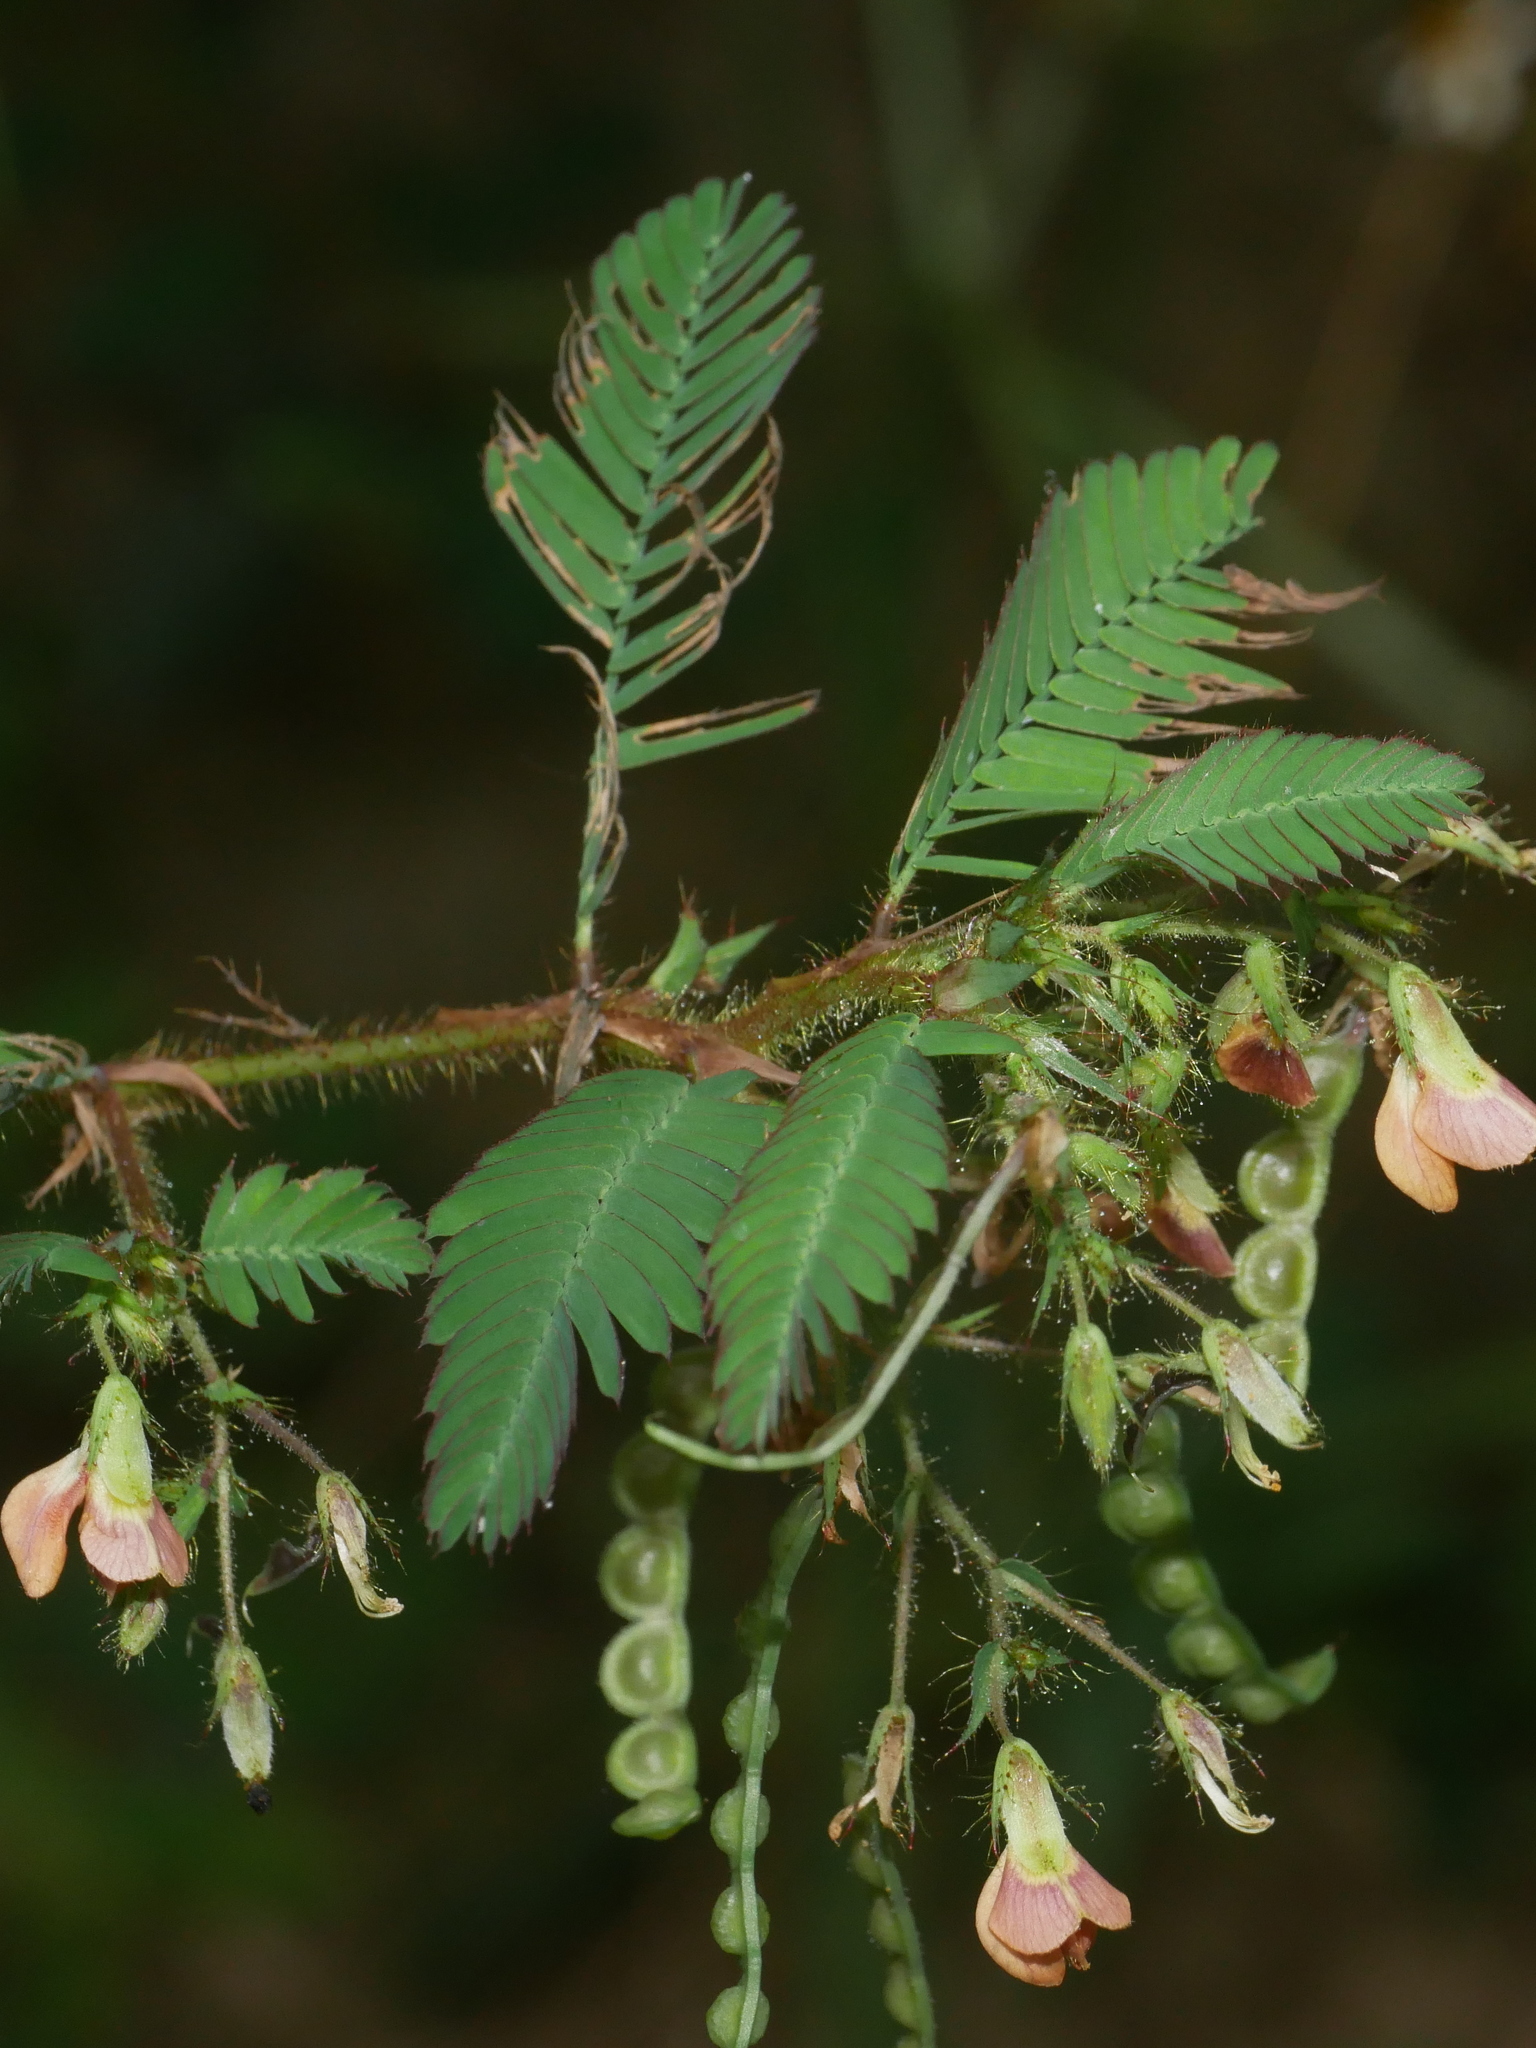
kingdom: Plantae
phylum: Tracheophyta
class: Magnoliopsida
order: Fabales
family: Fabaceae
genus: Aeschynomene
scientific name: Aeschynomene americana
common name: Joint-vetch
